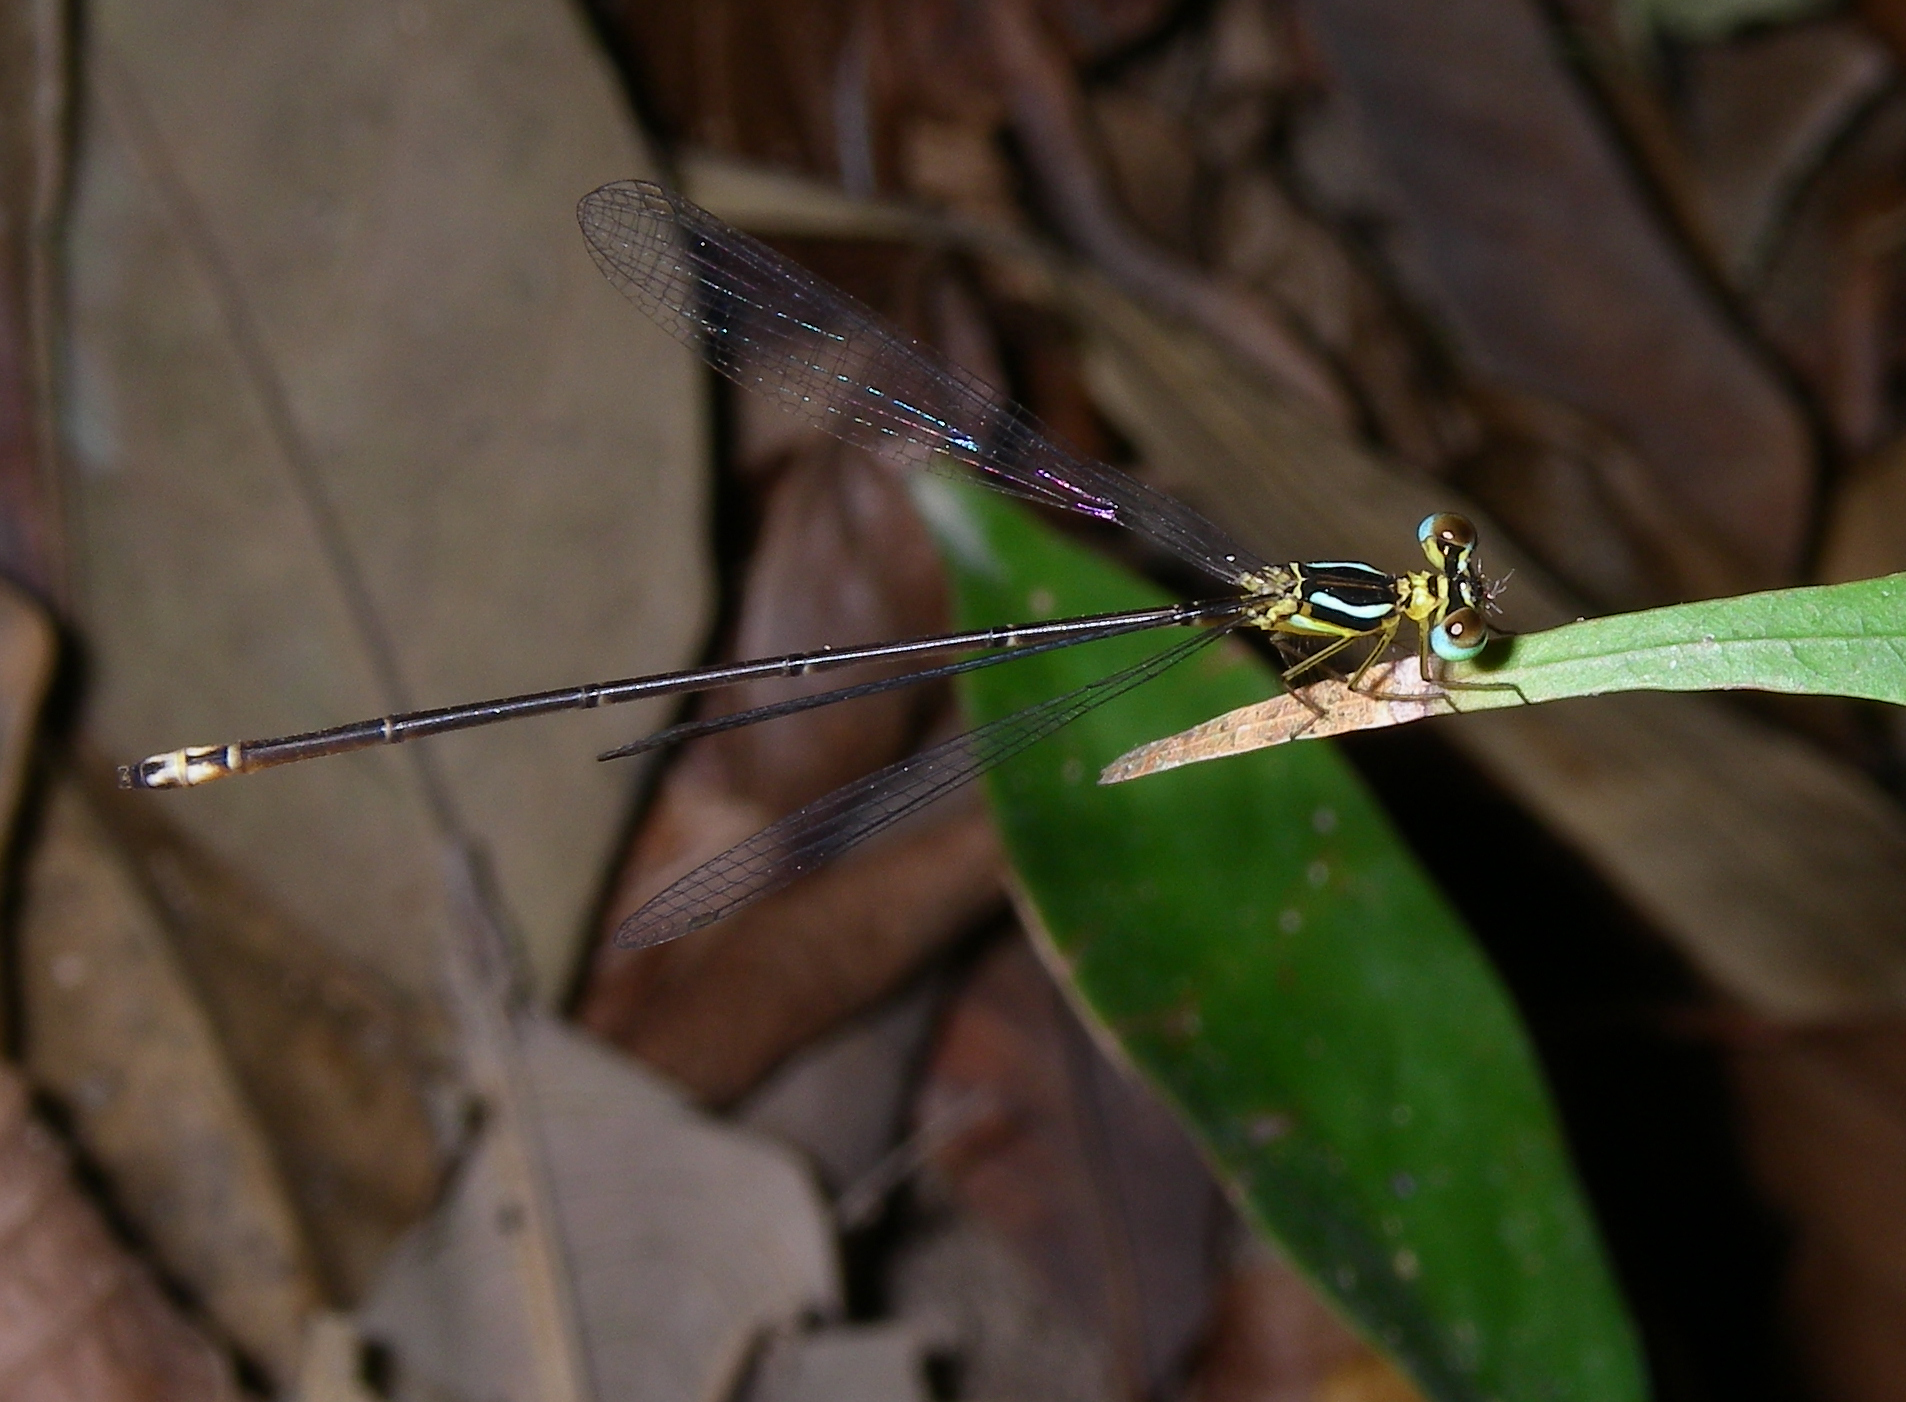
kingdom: Animalia
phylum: Arthropoda
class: Insecta
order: Odonata
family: Platycnemididae
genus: Coeliccia
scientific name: Coeliccia albicauda
